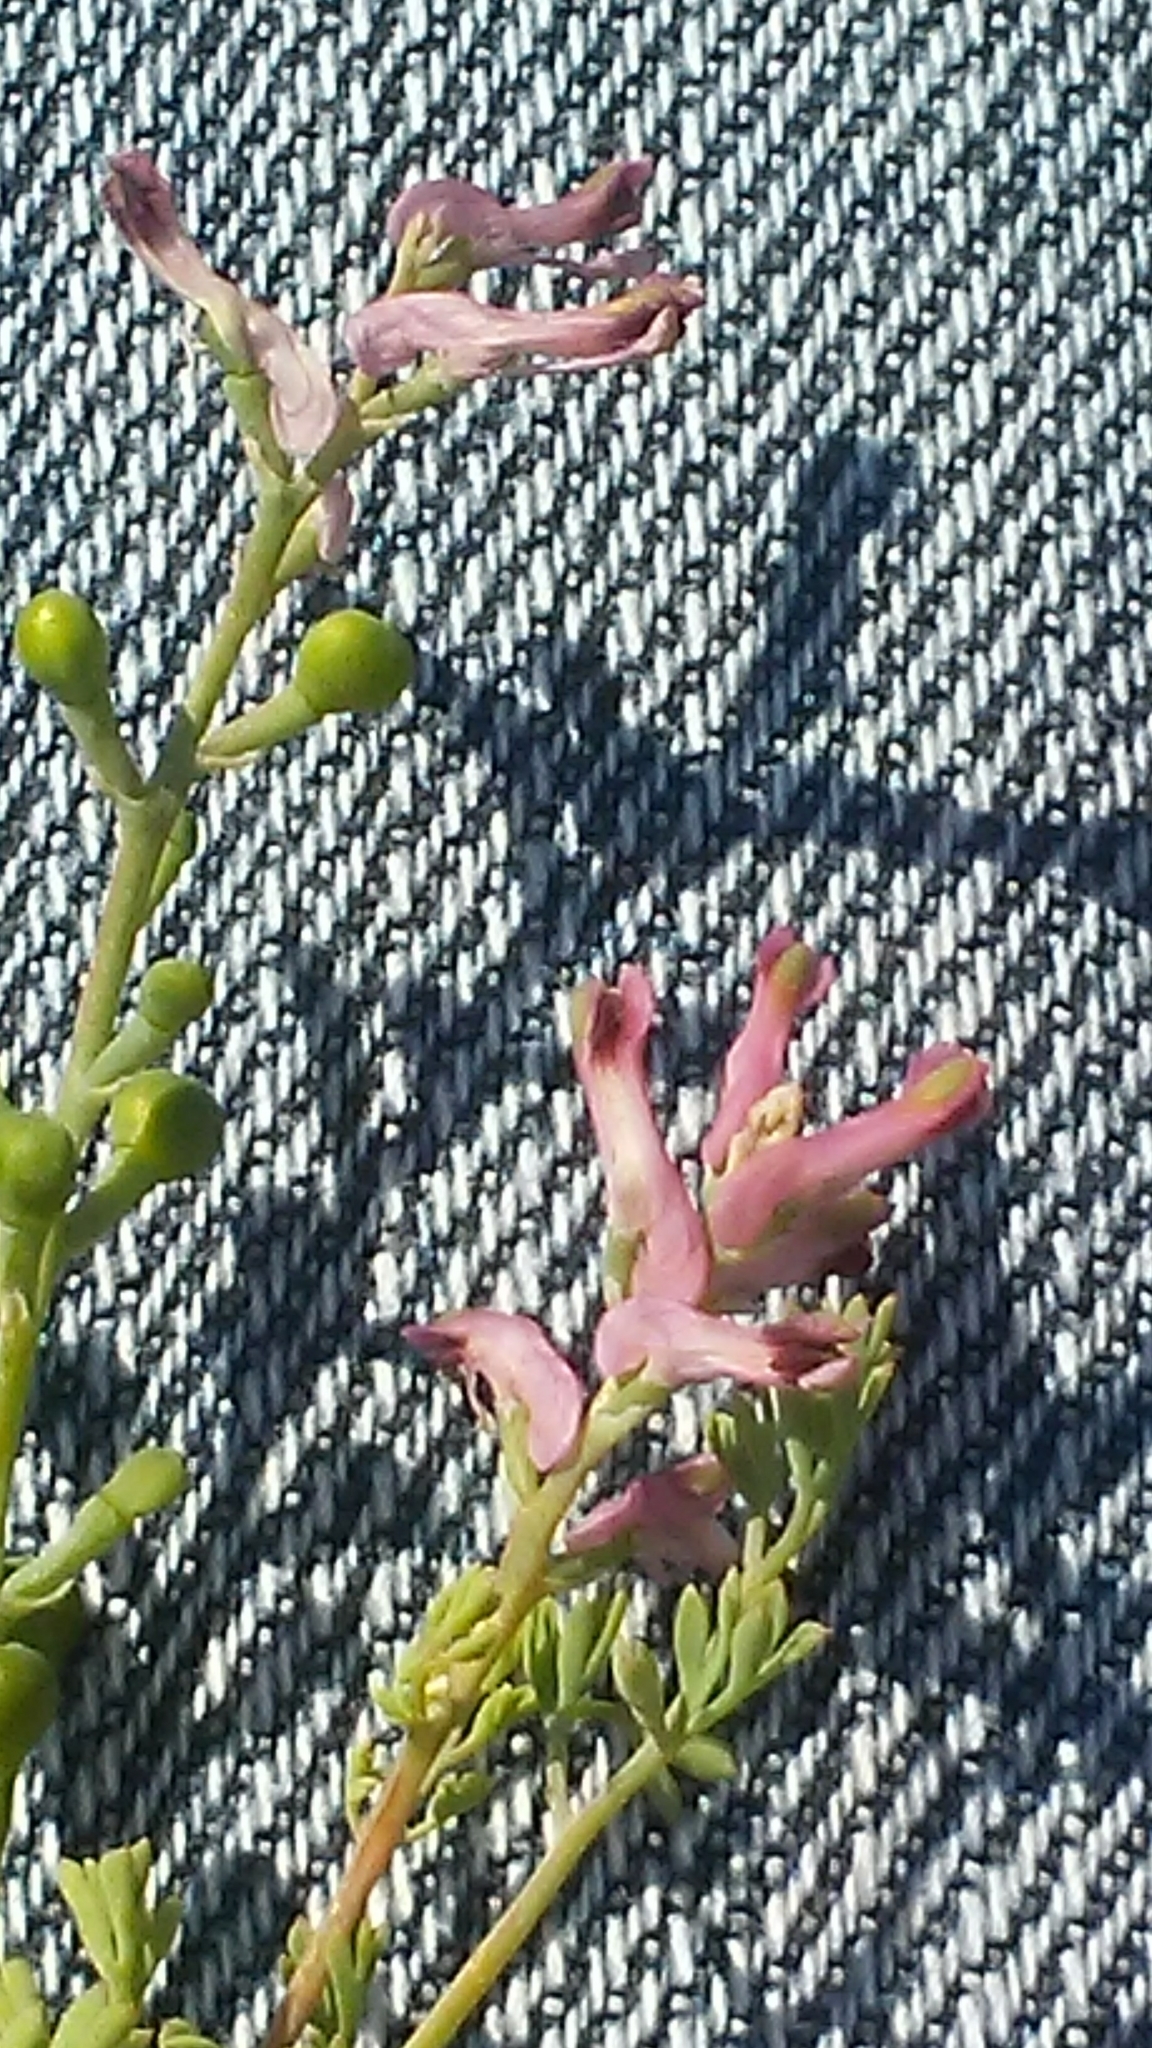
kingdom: Plantae
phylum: Tracheophyta
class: Magnoliopsida
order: Ranunculales
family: Papaveraceae
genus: Fumaria
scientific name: Fumaria officinalis
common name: Common fumitory
